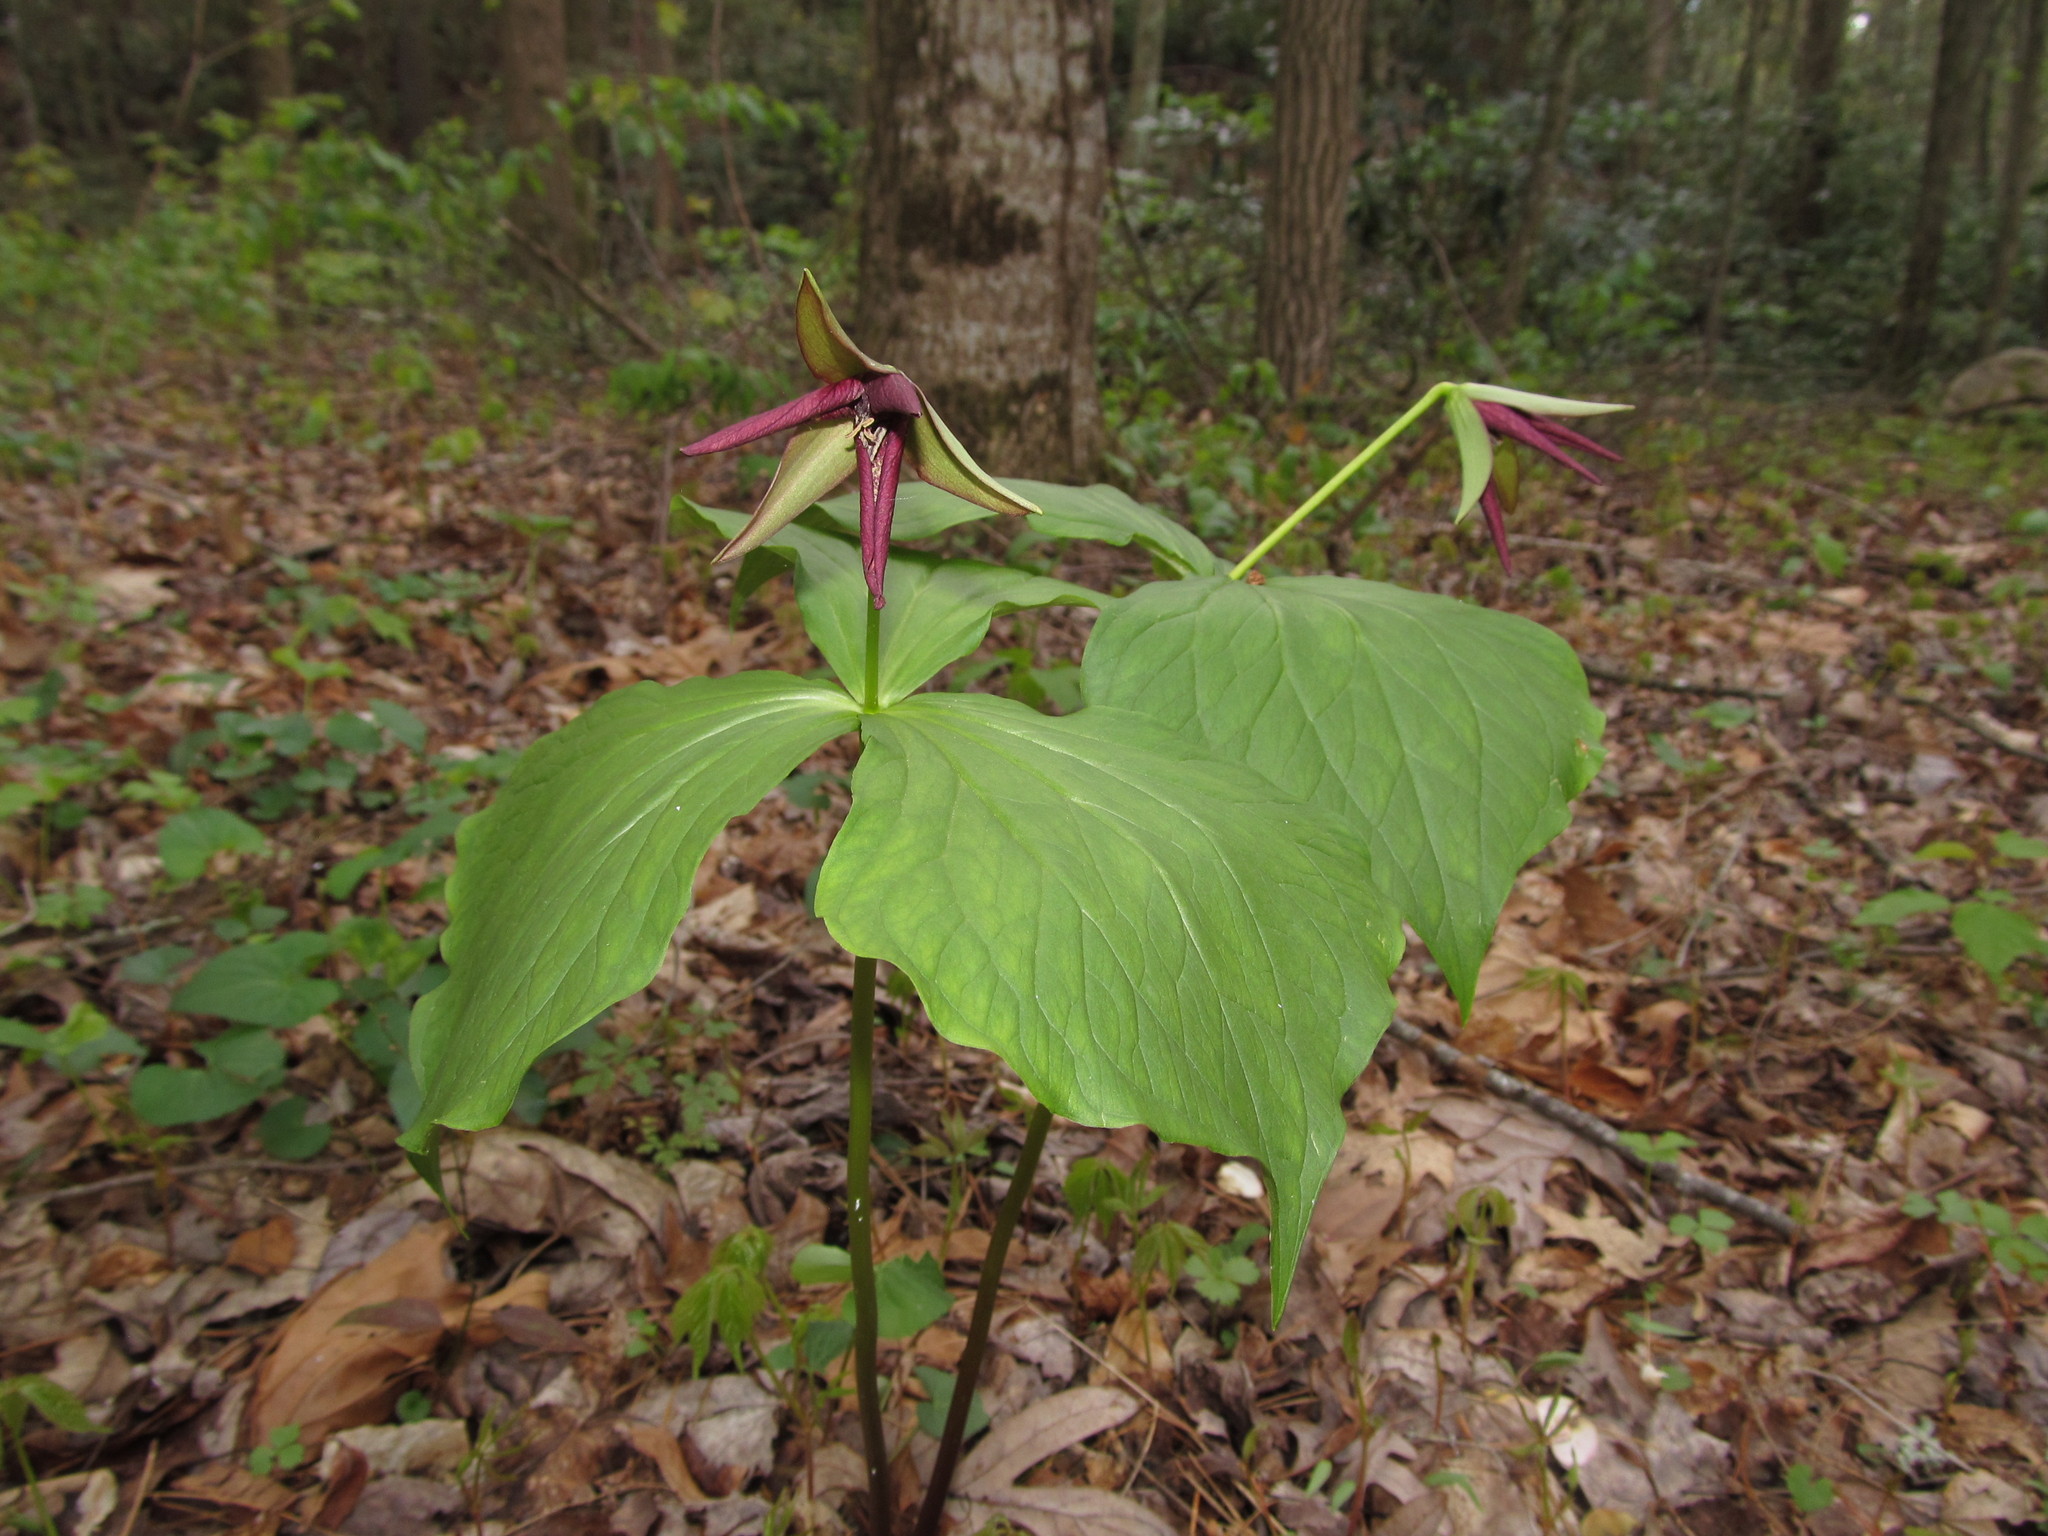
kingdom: Plantae
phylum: Tracheophyta
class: Liliopsida
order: Liliales
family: Melanthiaceae
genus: Trillium
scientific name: Trillium sulcatum
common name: Barksdale trillium
